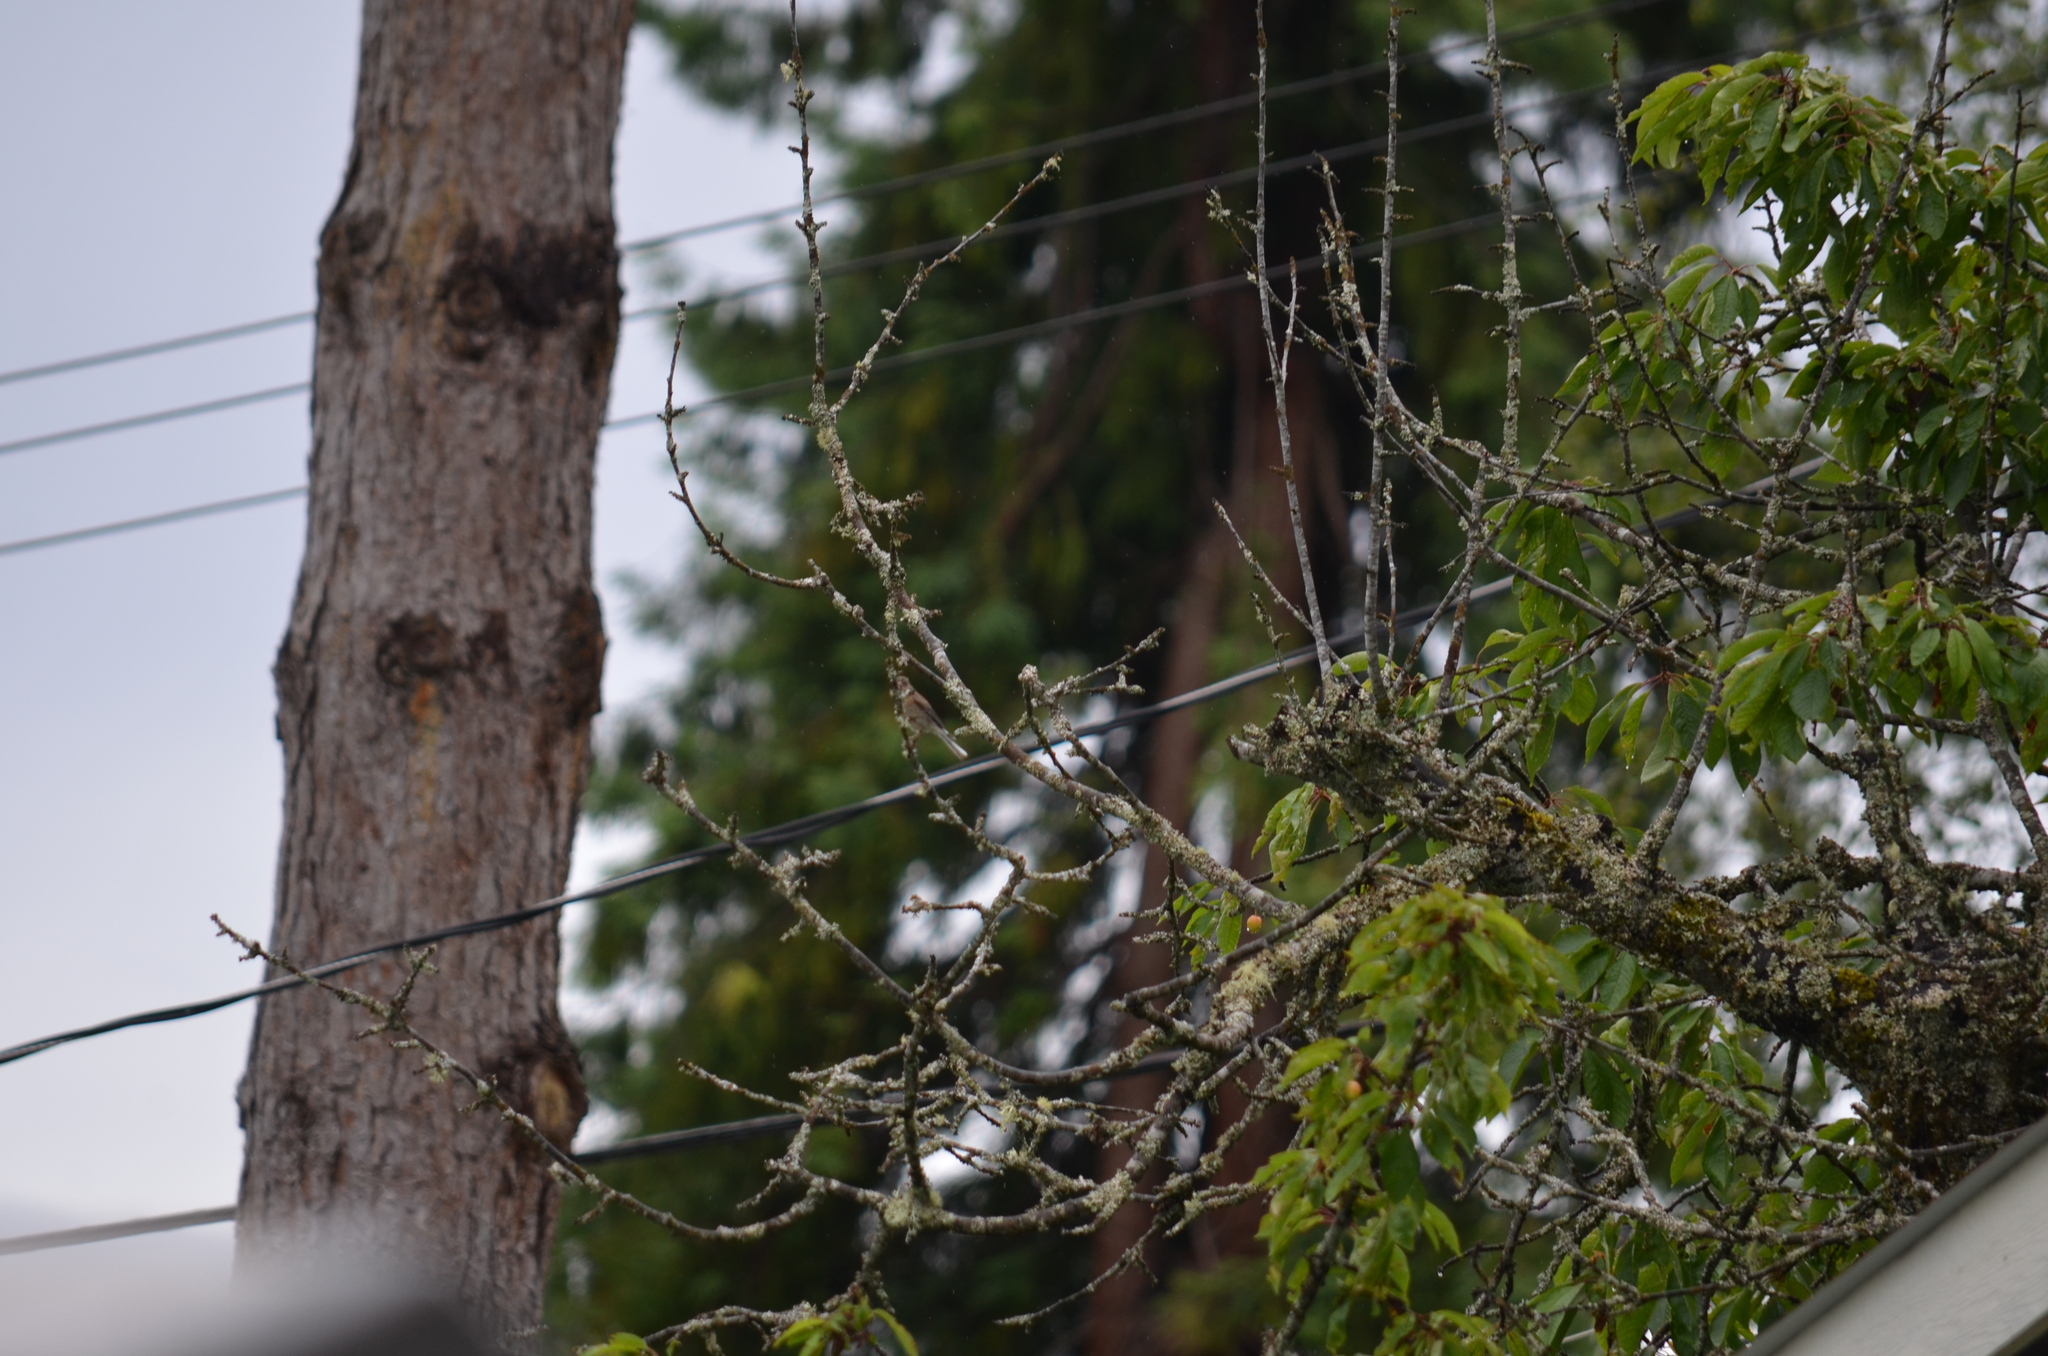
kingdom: Animalia
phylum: Chordata
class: Aves
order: Passeriformes
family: Passerellidae
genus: Junco
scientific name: Junco hyemalis
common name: Dark-eyed junco
